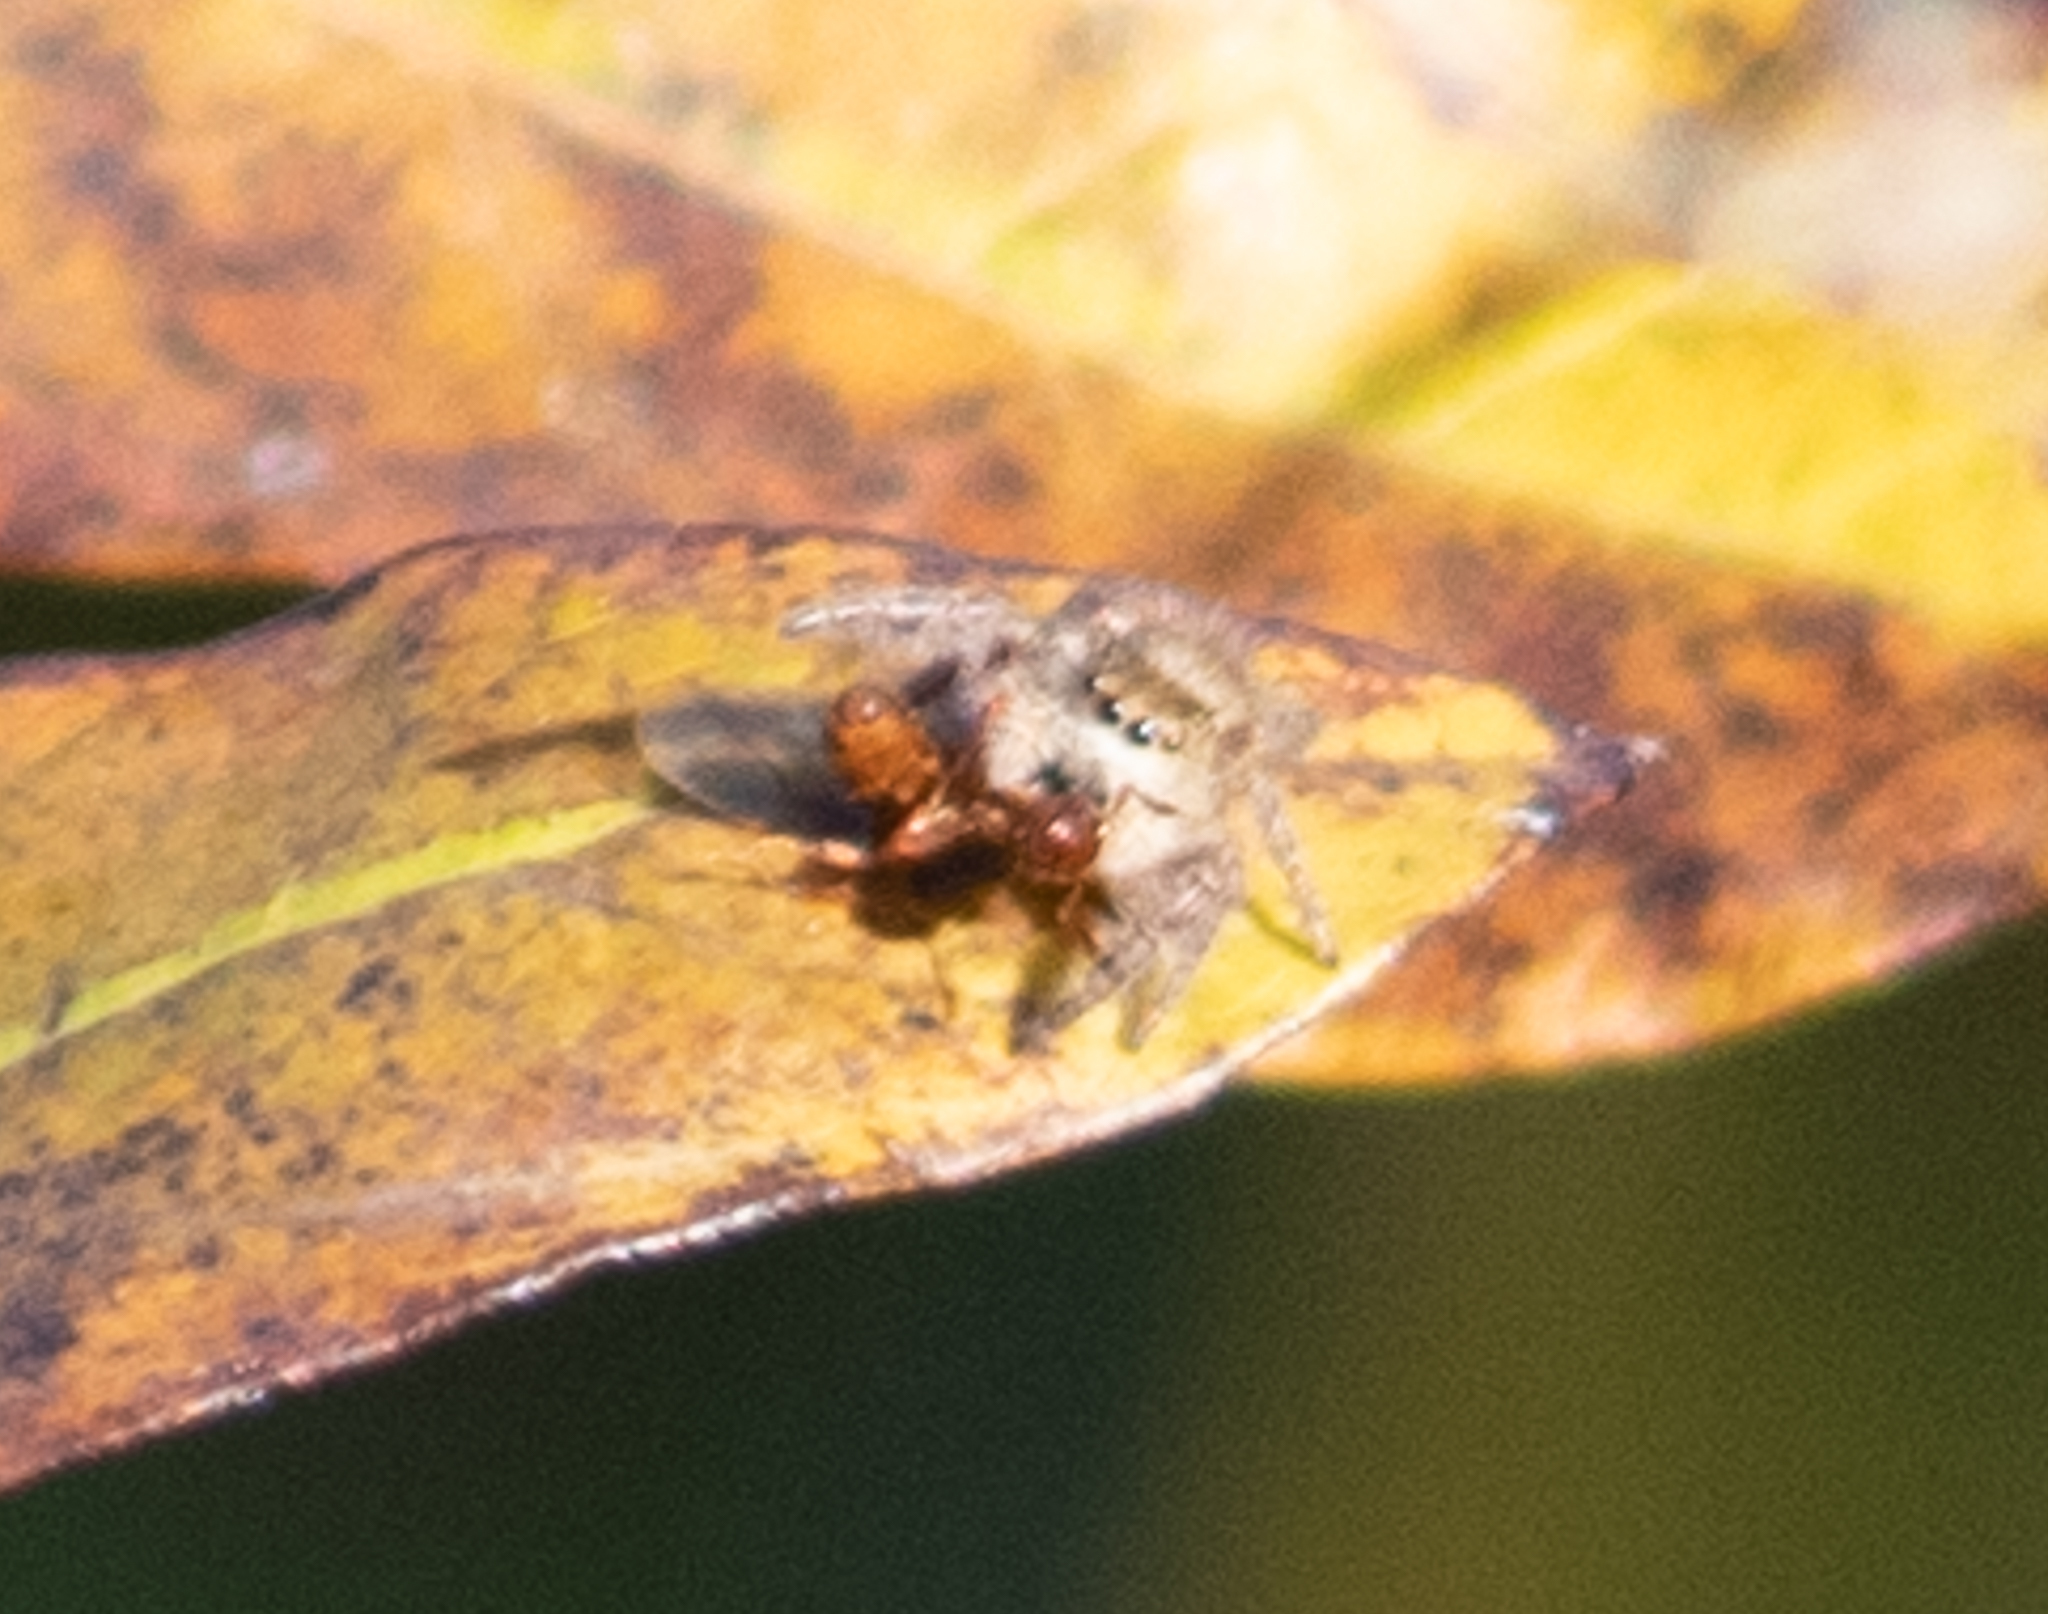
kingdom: Animalia
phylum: Arthropoda
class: Arachnida
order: Araneae
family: Salticidae
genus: Phidippus
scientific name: Phidippus princeps
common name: Grayish jumping spider
